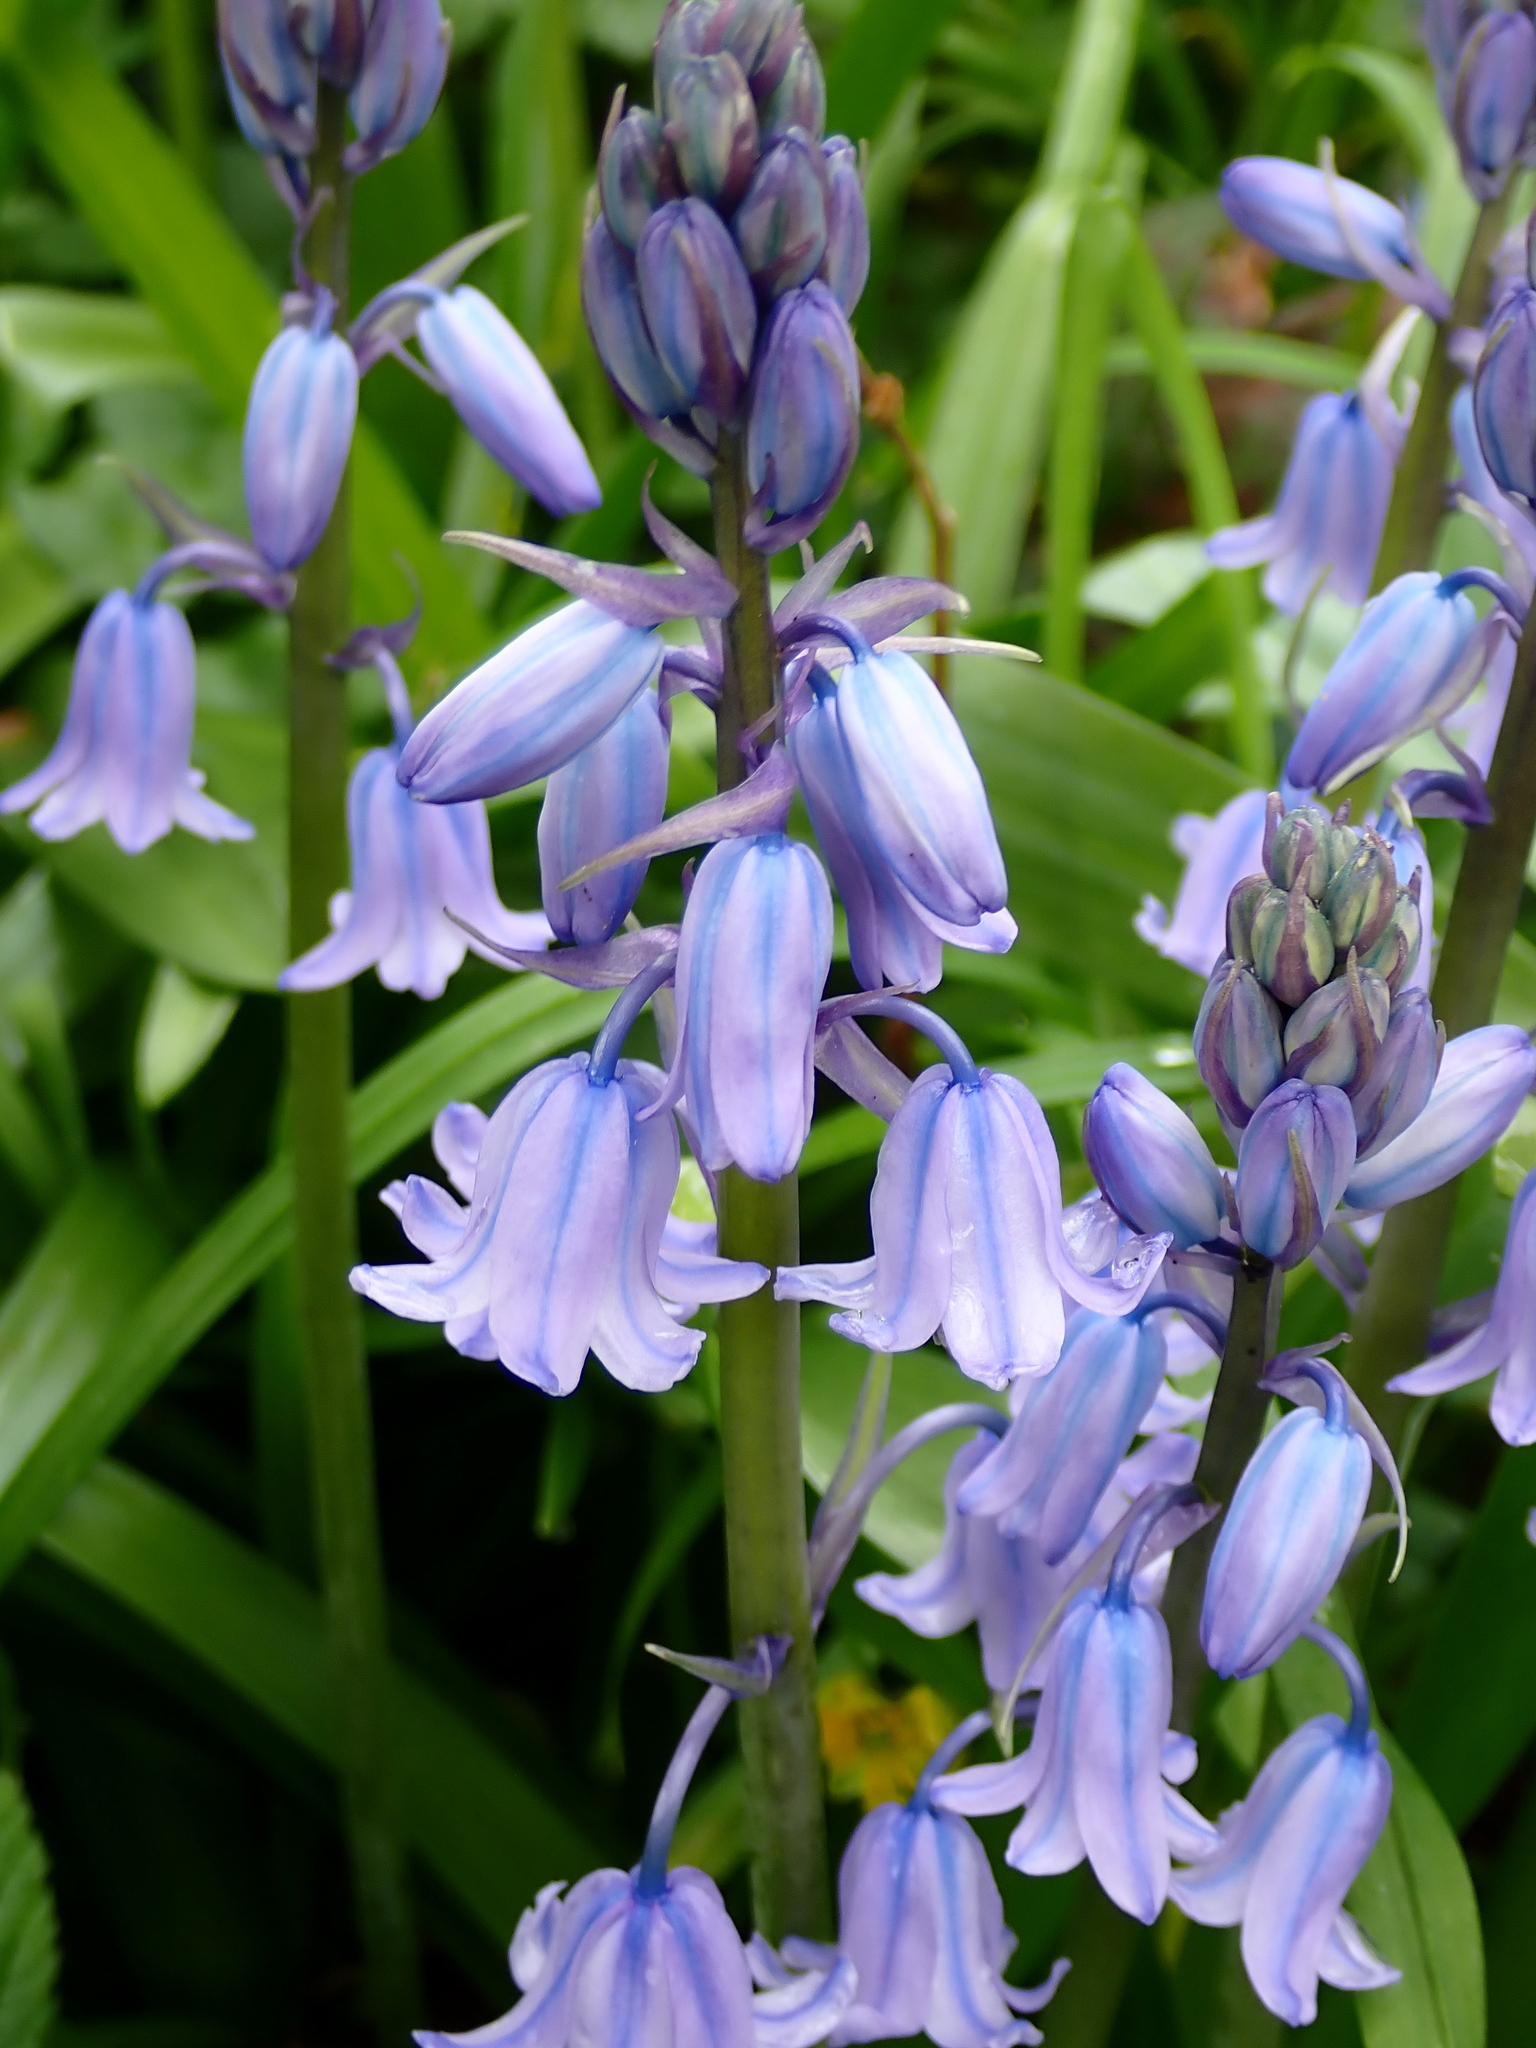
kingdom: Plantae
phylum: Tracheophyta
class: Liliopsida
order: Asparagales
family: Asparagaceae
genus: Hyacinthoides
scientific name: Hyacinthoides massartiana
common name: Hyacinthoides
